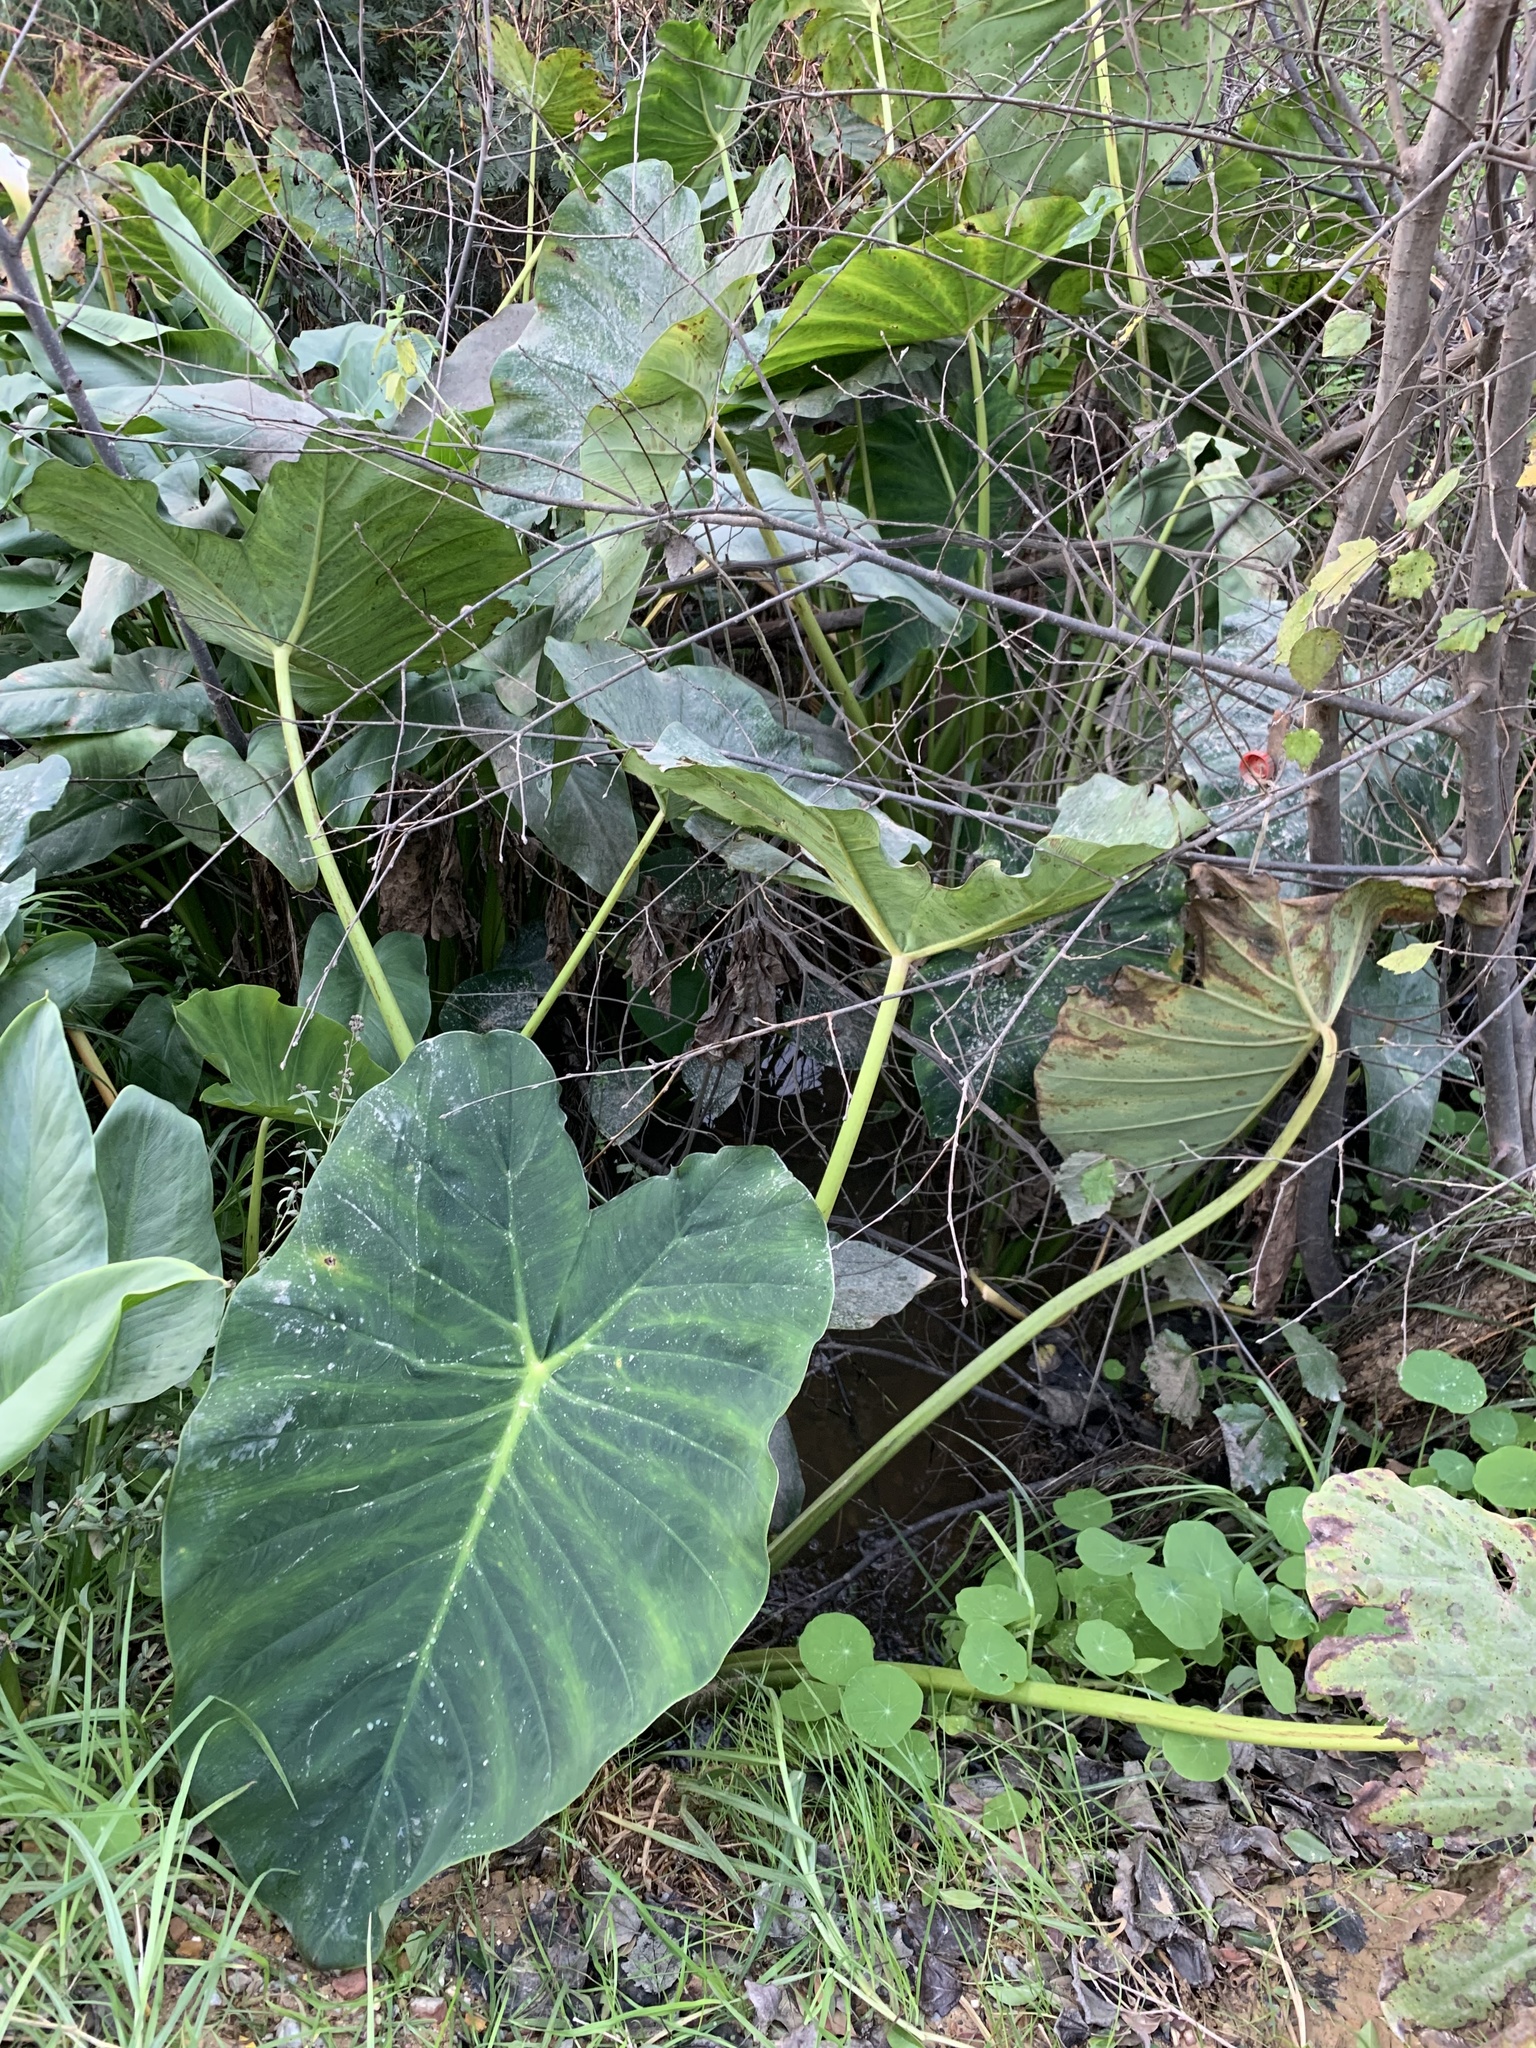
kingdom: Plantae
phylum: Tracheophyta
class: Liliopsida
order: Alismatales
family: Araceae
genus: Colocasia
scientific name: Colocasia esculenta
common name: Taro
